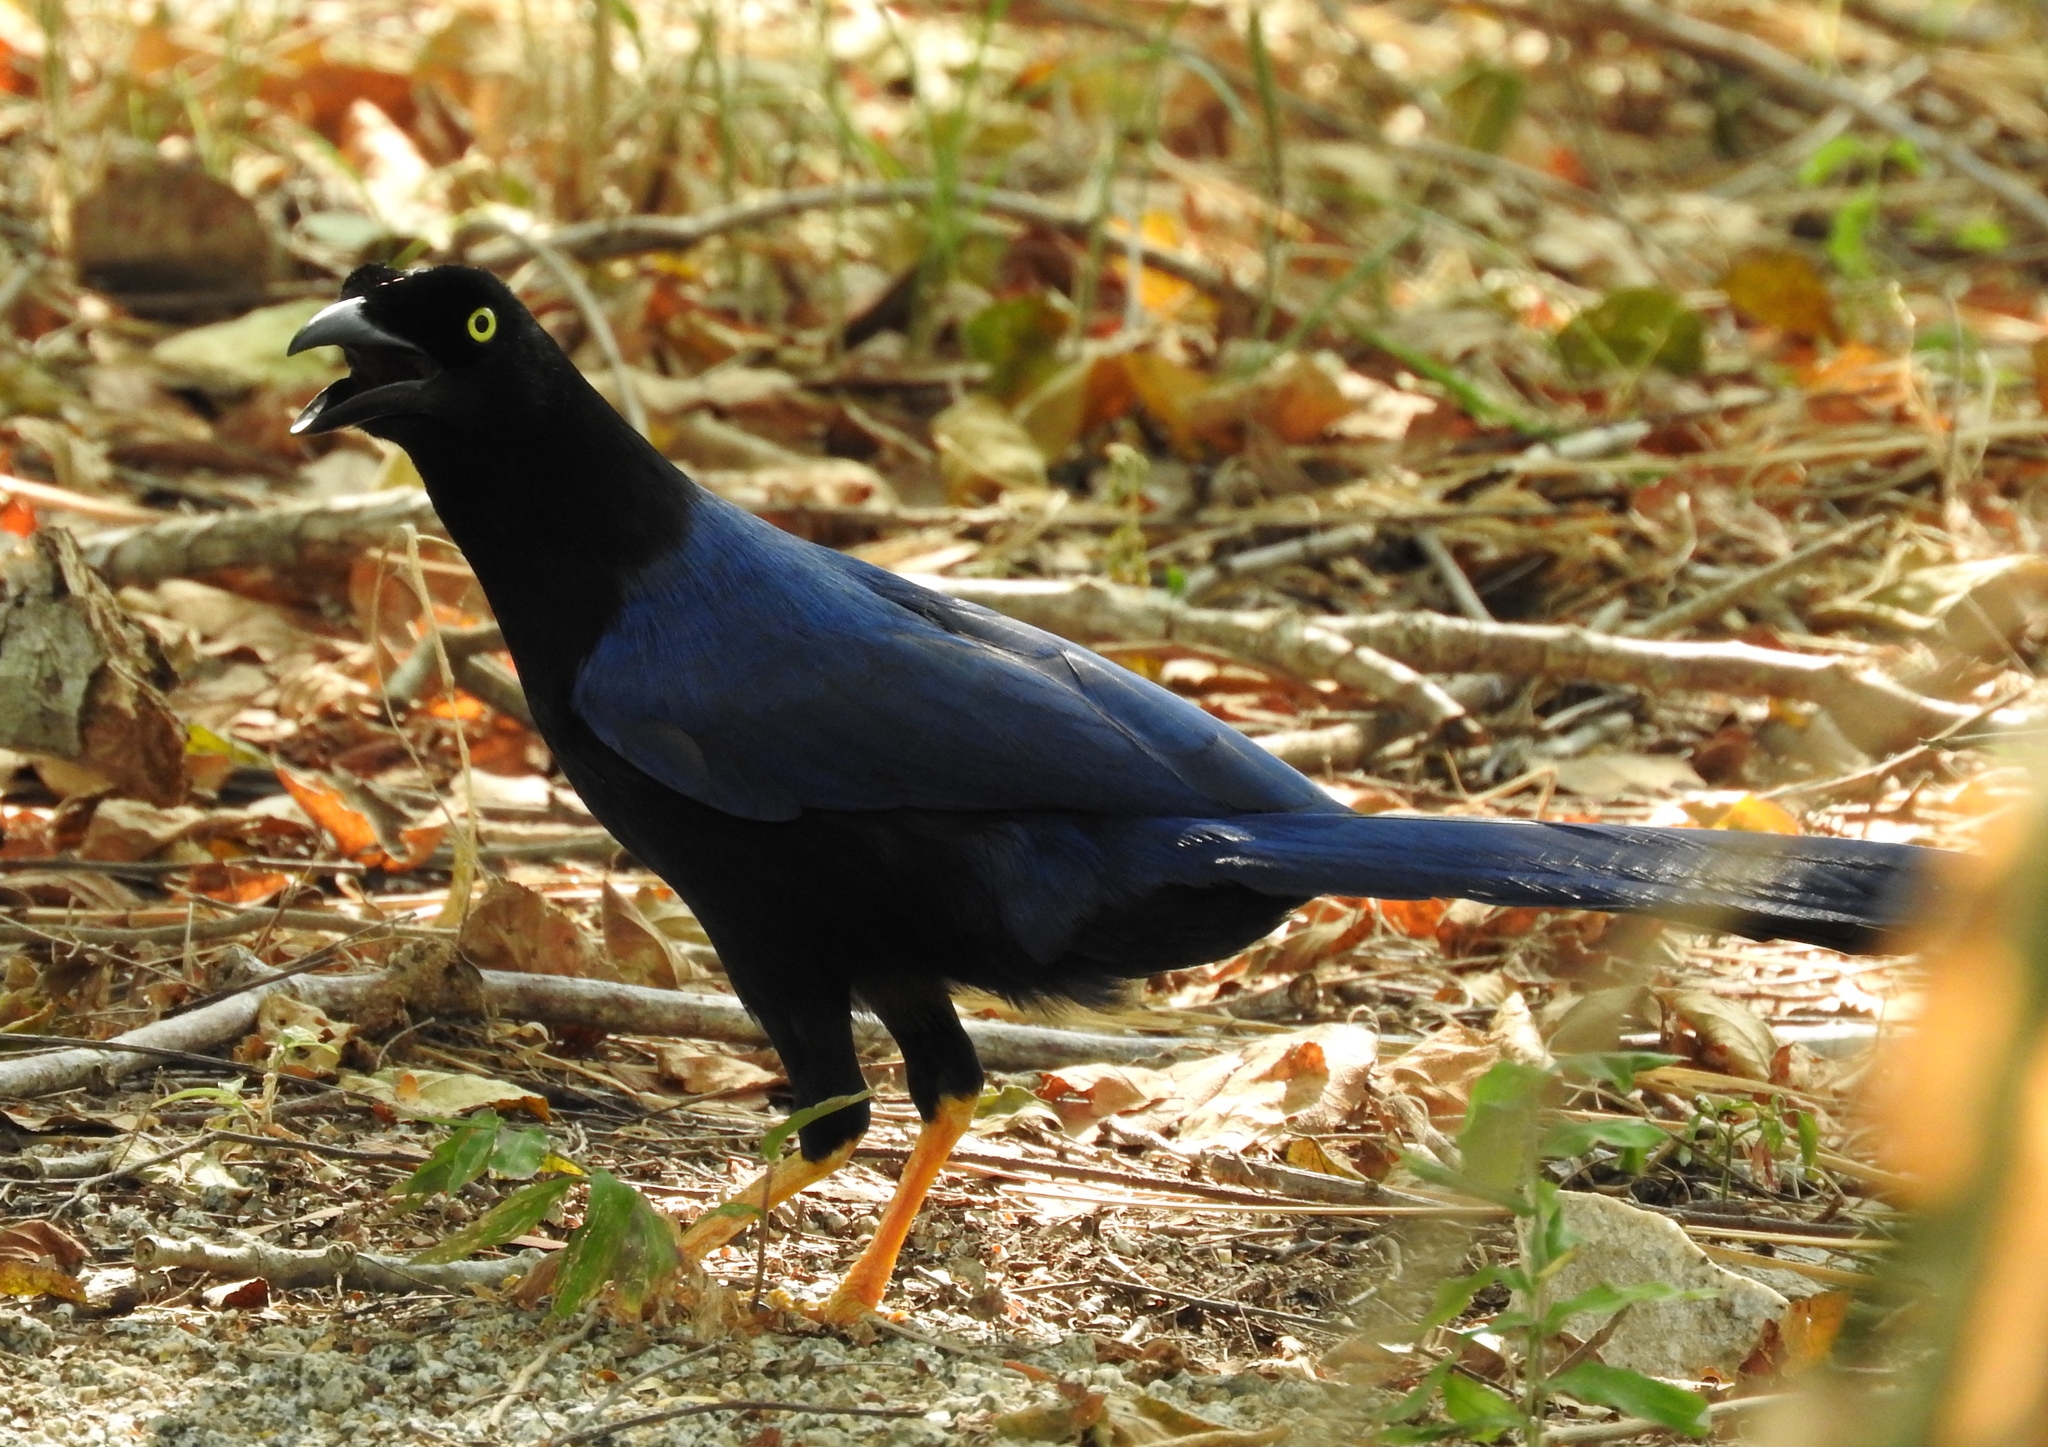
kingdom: Animalia
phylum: Chordata
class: Aves
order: Passeriformes
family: Corvidae
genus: Cyanocorax
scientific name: Cyanocorax beecheii
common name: Purplish-backed jay
